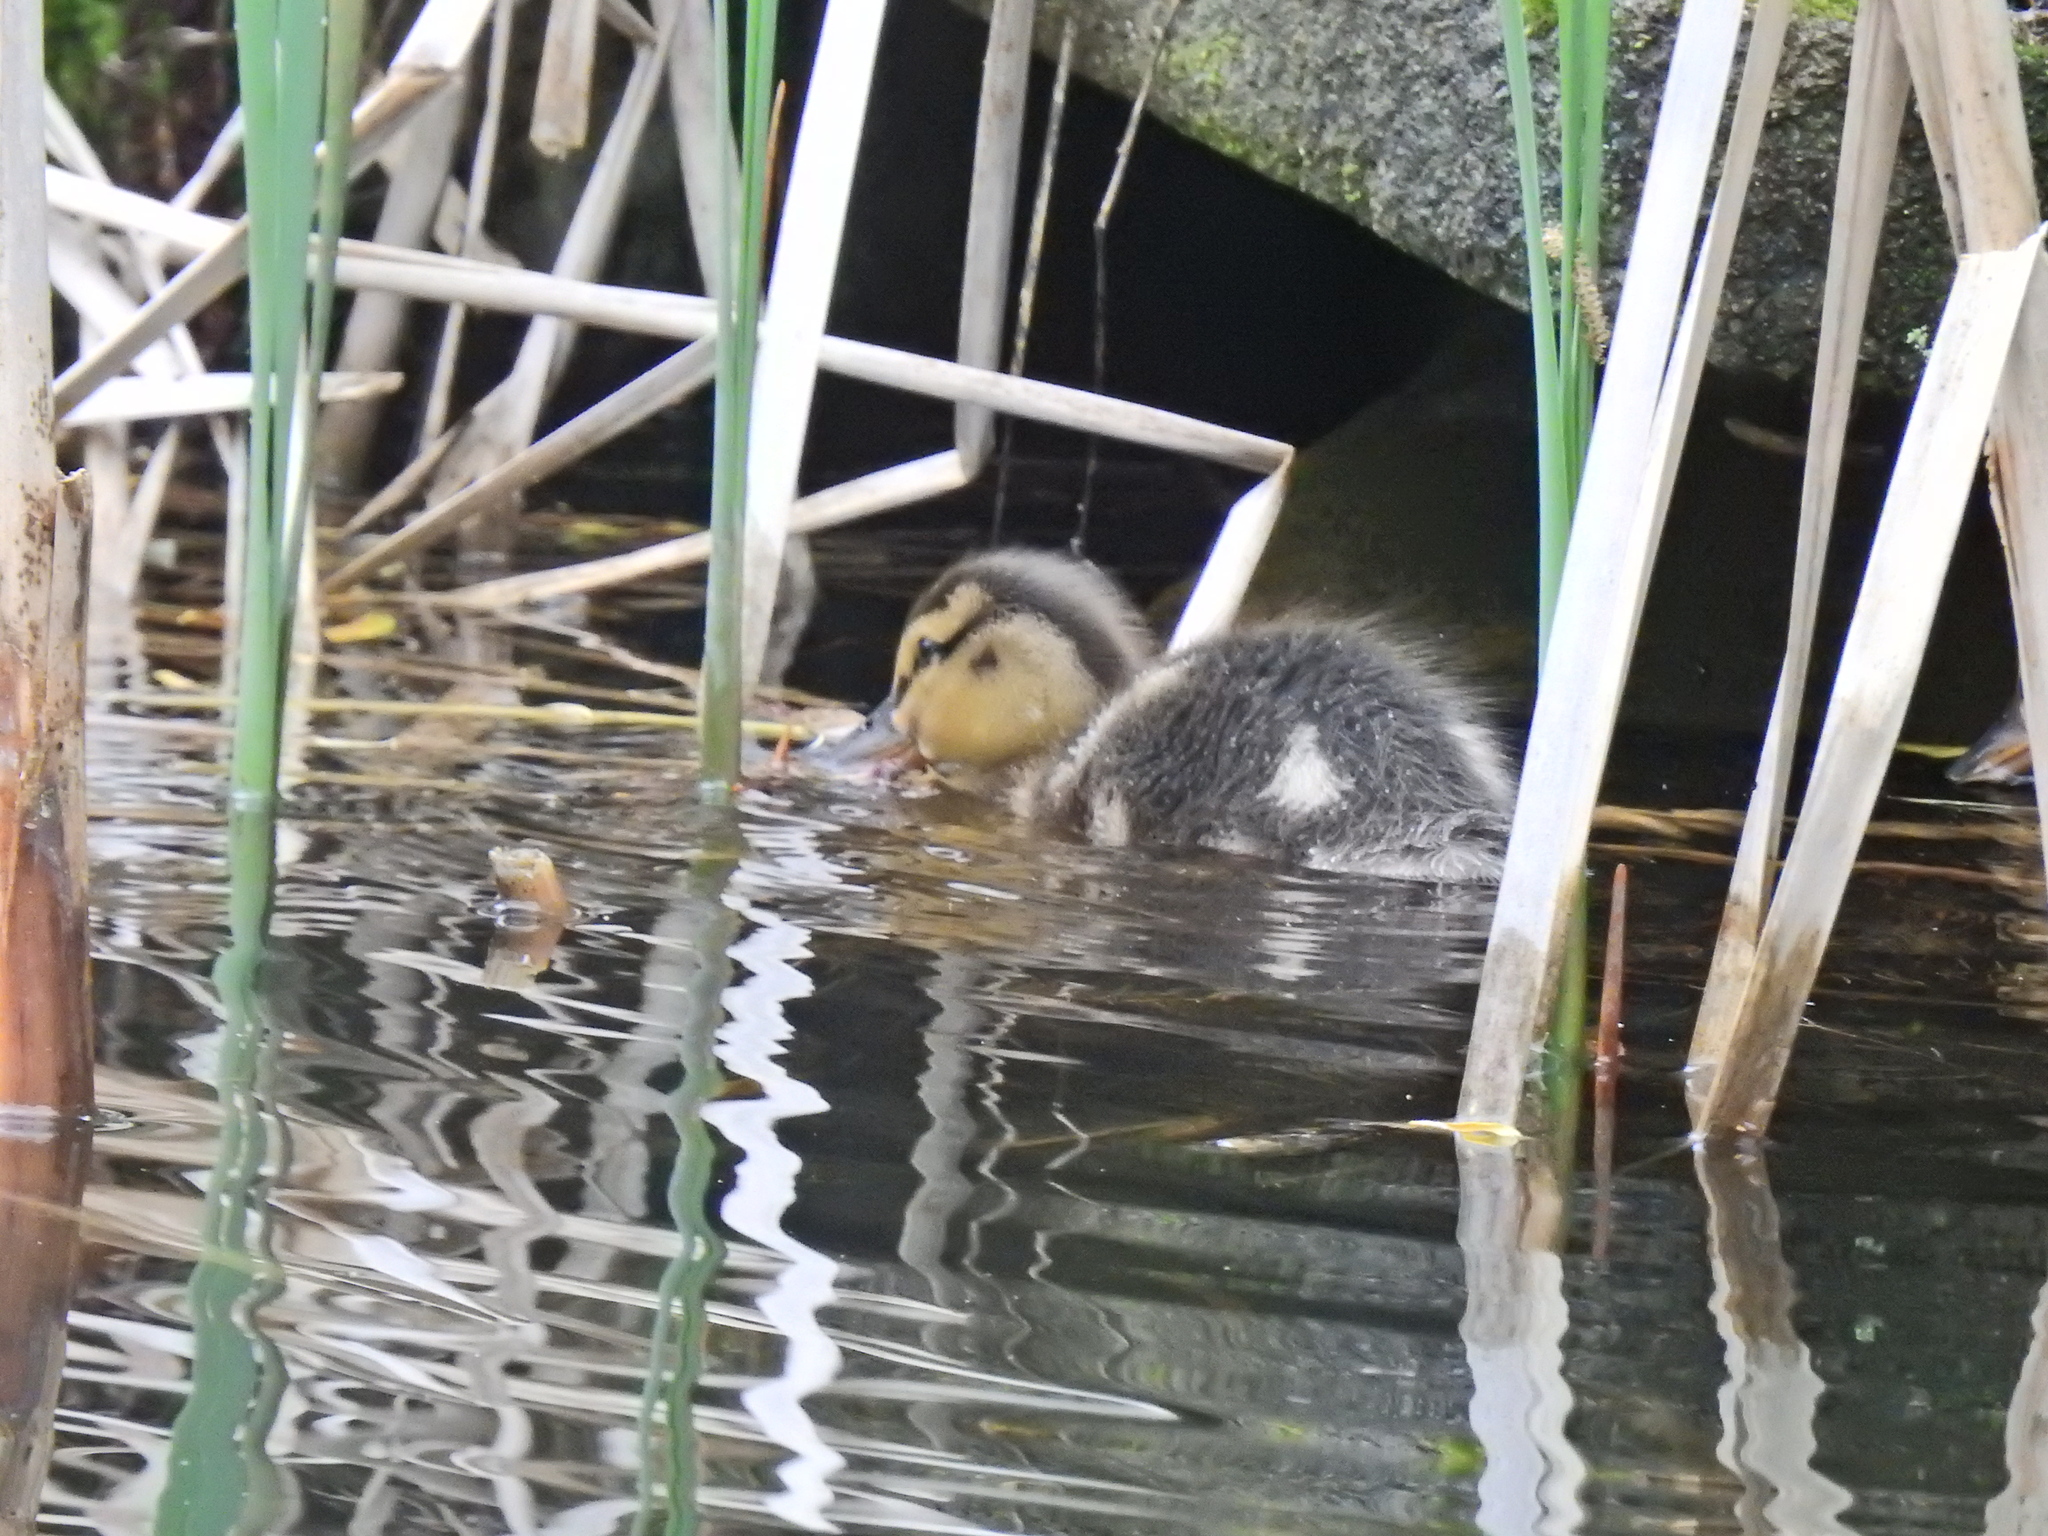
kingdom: Animalia
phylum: Chordata
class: Aves
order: Anseriformes
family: Anatidae
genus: Anas
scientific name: Anas platyrhynchos
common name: Mallard
